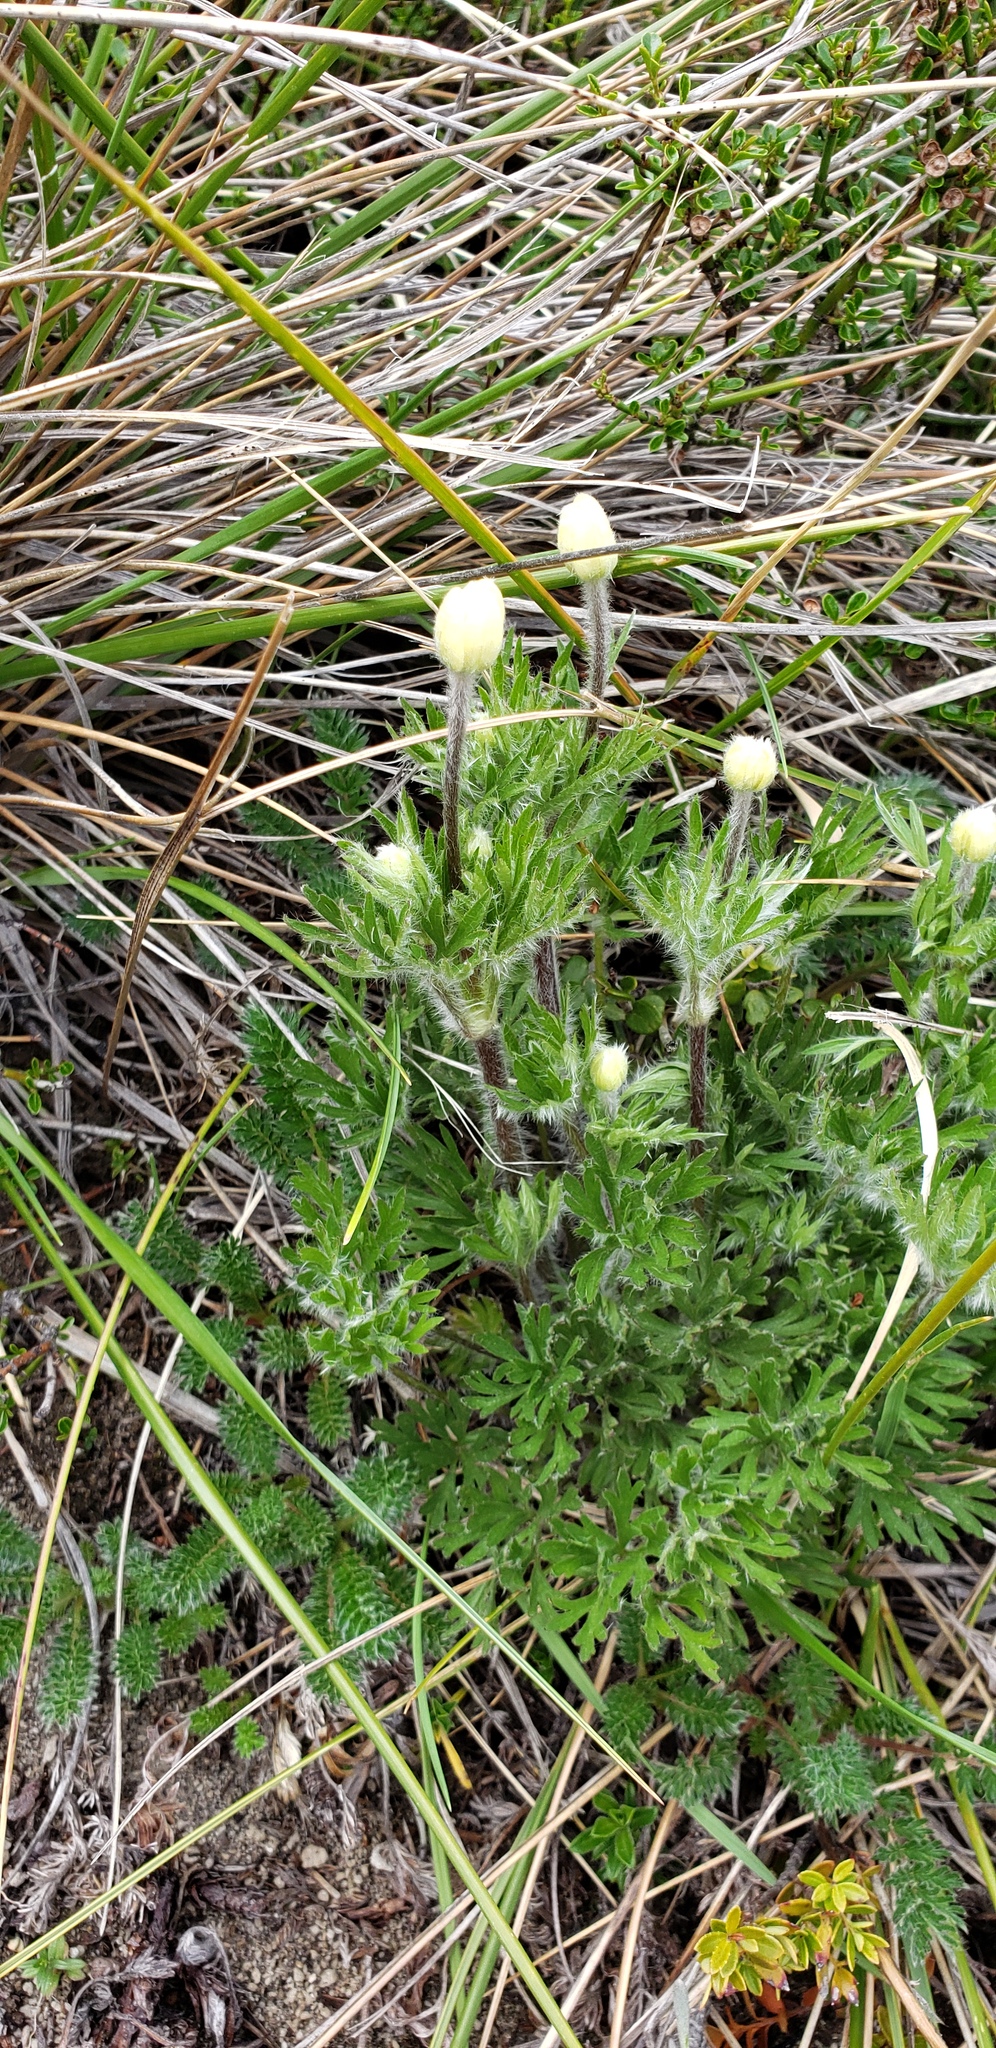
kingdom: Plantae
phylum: Tracheophyta
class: Magnoliopsida
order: Ranunculales
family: Ranunculaceae
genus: Anemone
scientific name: Anemone multifida
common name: Bird's-foot anemone
